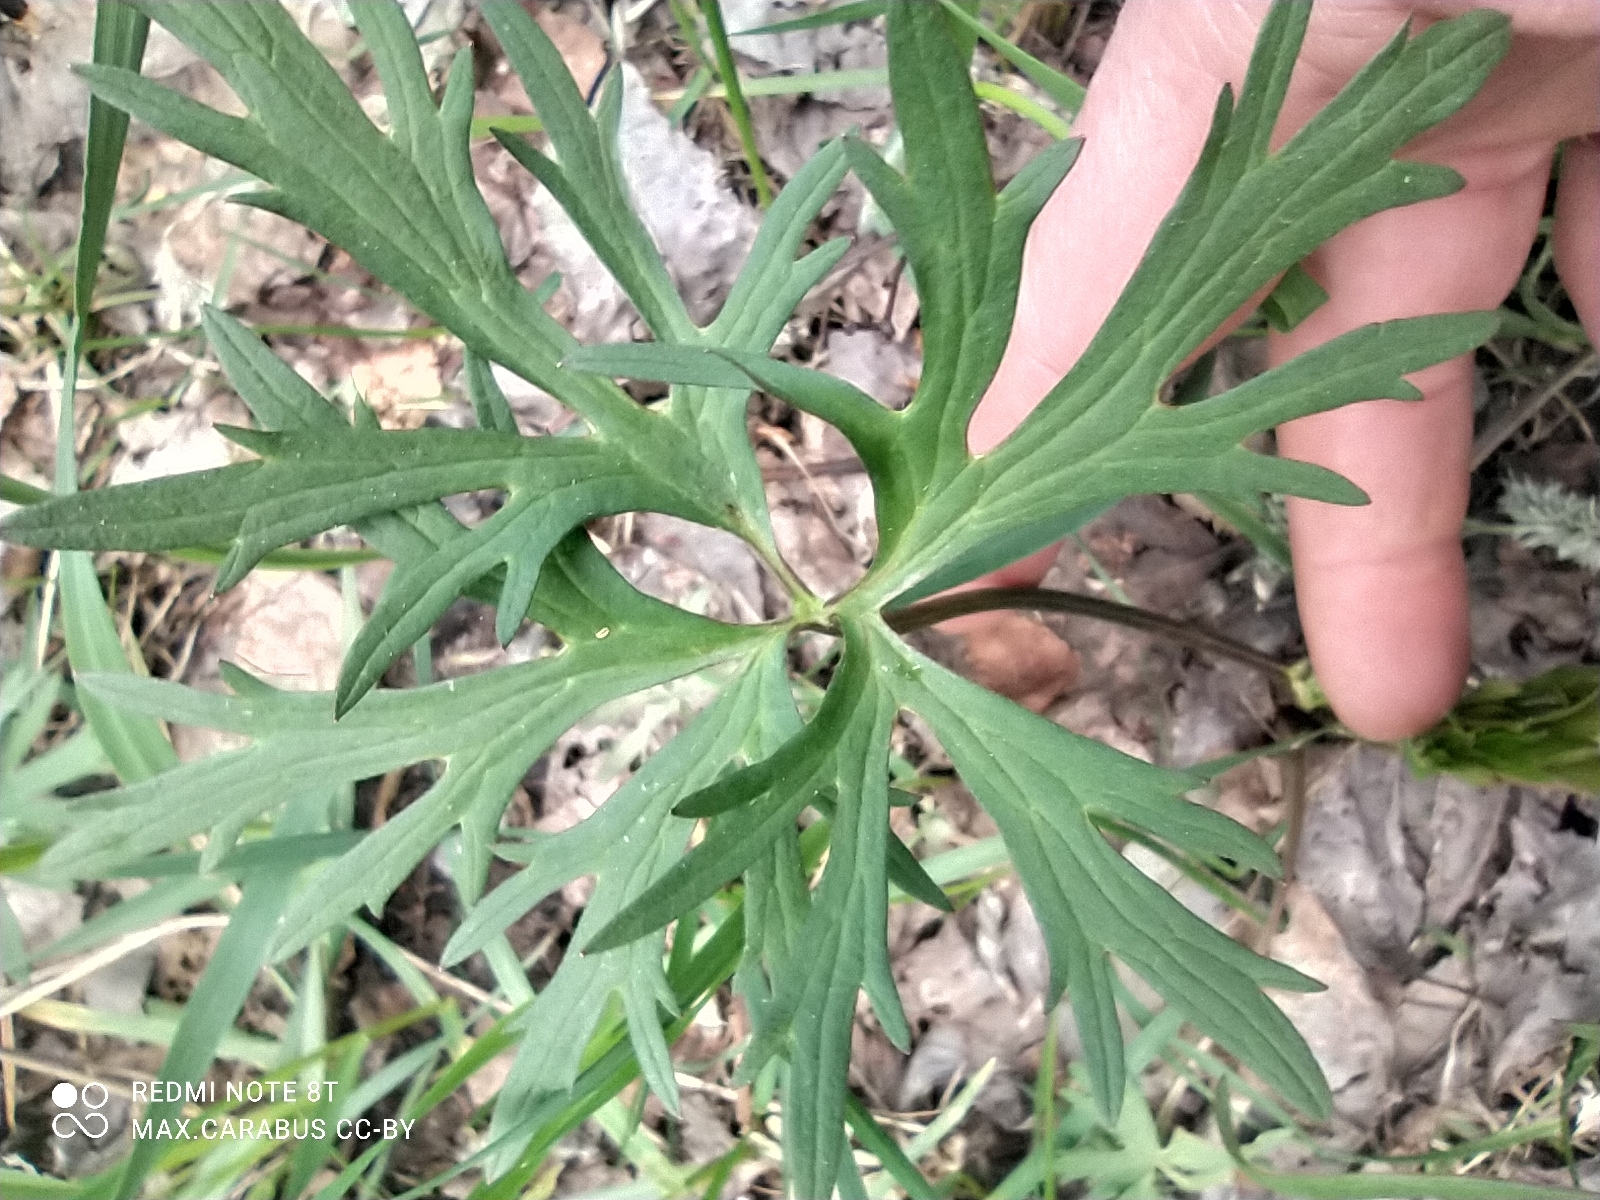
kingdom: Plantae
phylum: Tracheophyta
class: Magnoliopsida
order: Ranunculales
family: Ranunculaceae
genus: Ranunculus
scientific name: Ranunculus acris
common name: Meadow buttercup
